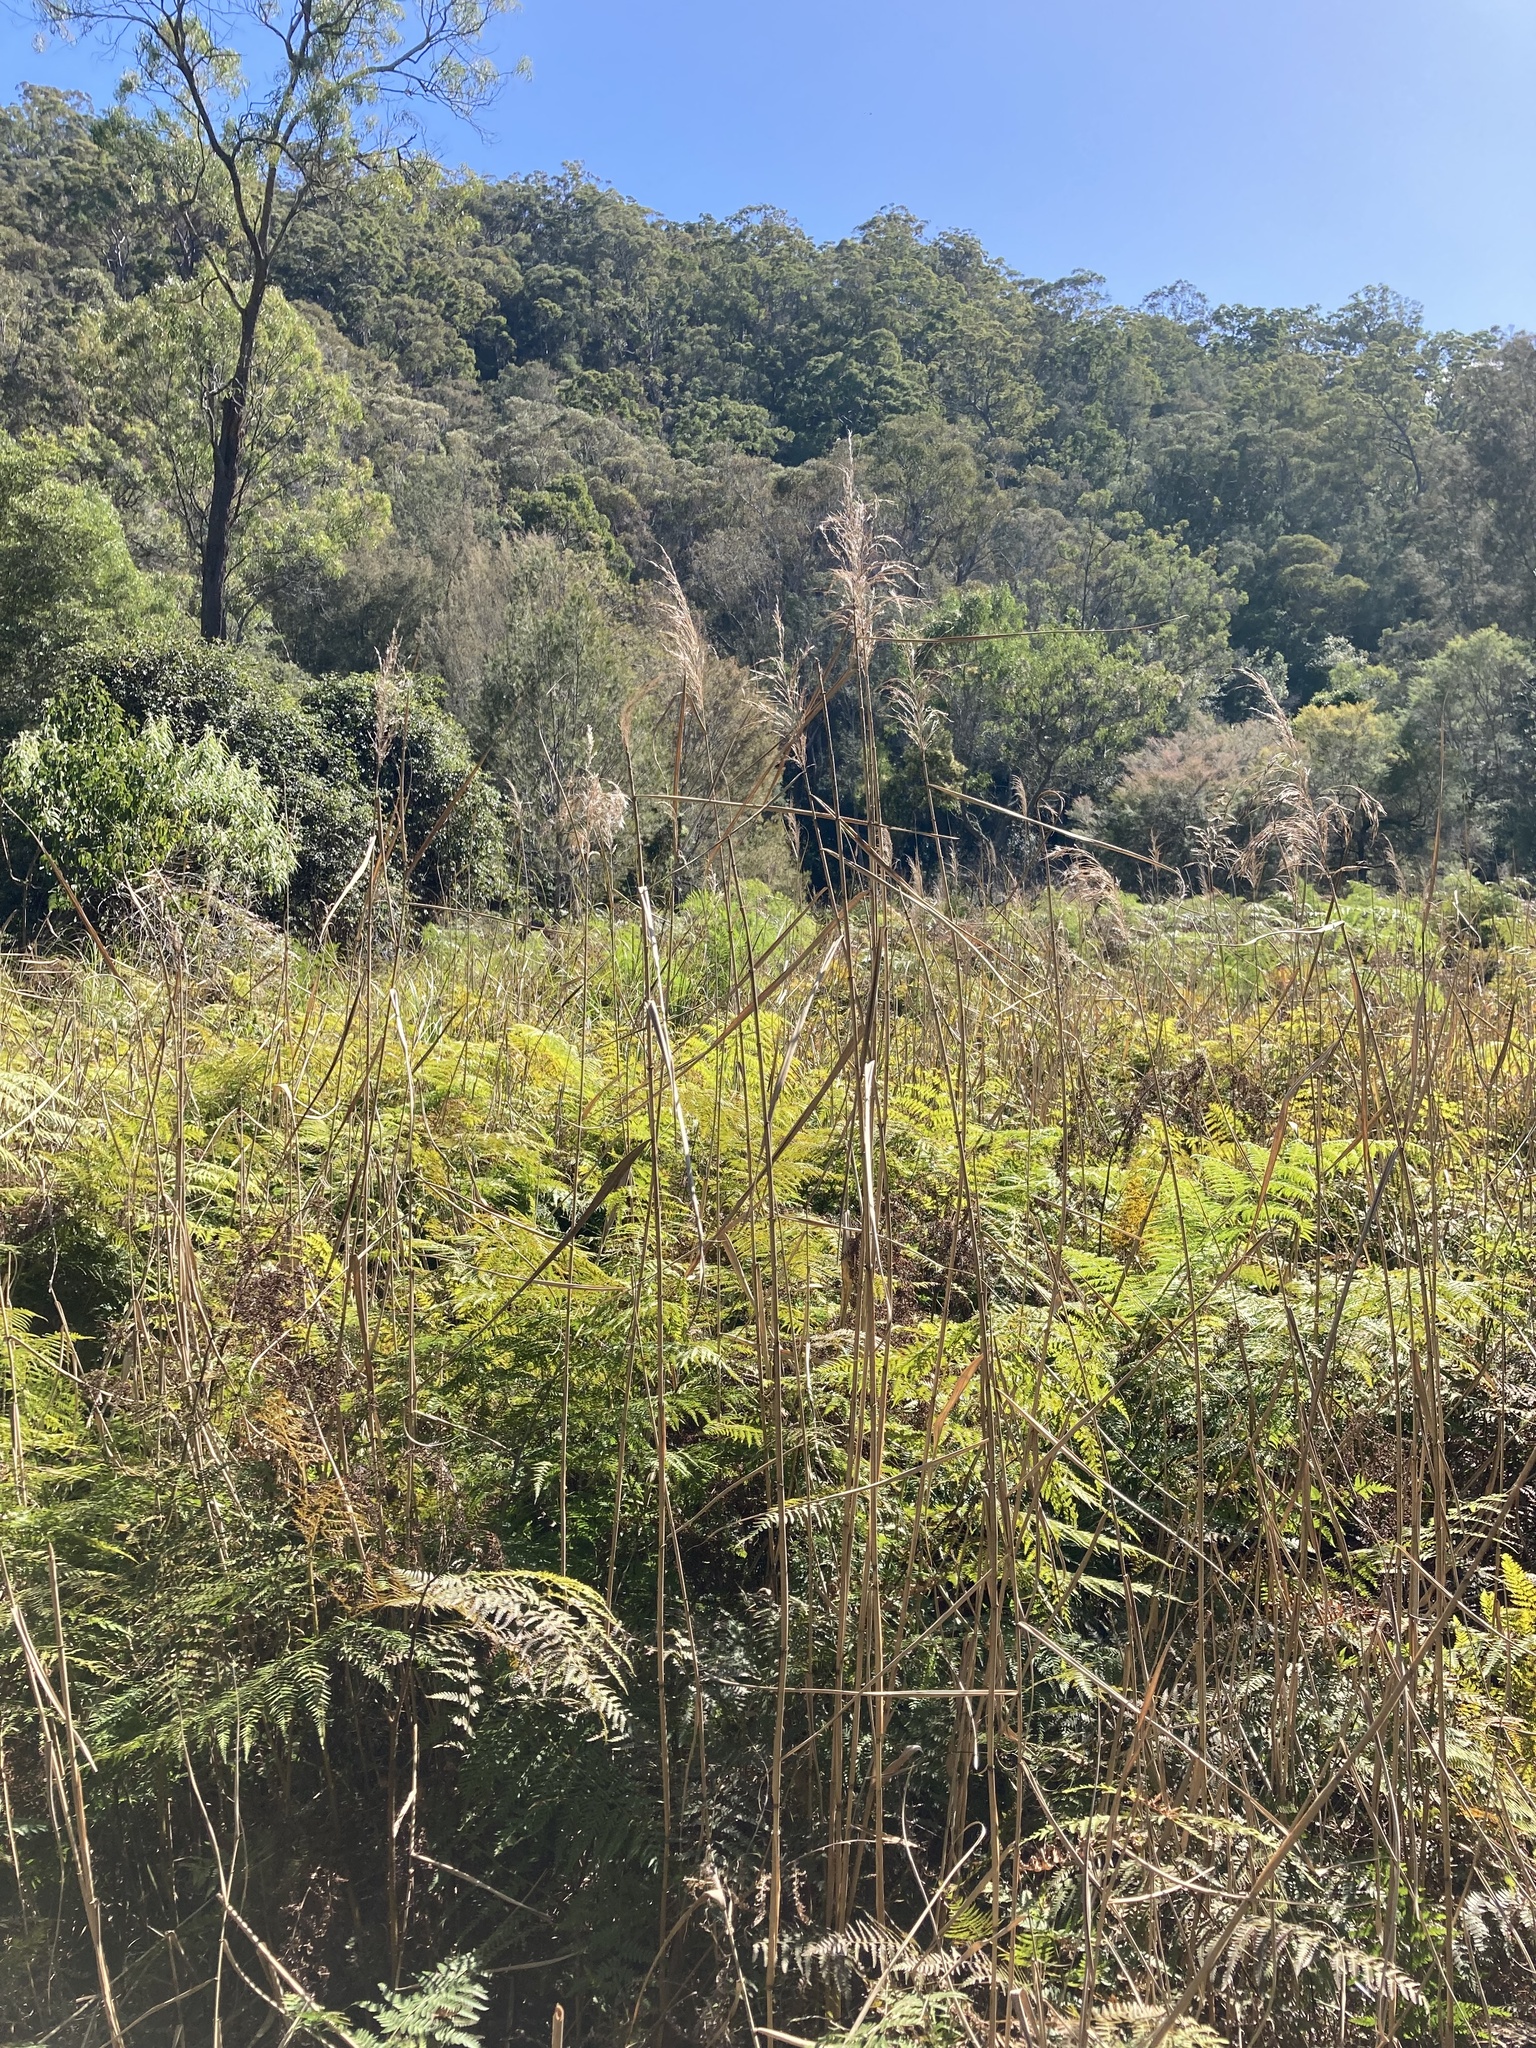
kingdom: Plantae
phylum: Tracheophyta
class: Liliopsida
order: Poales
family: Poaceae
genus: Phragmites
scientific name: Phragmites australis
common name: Common reed
